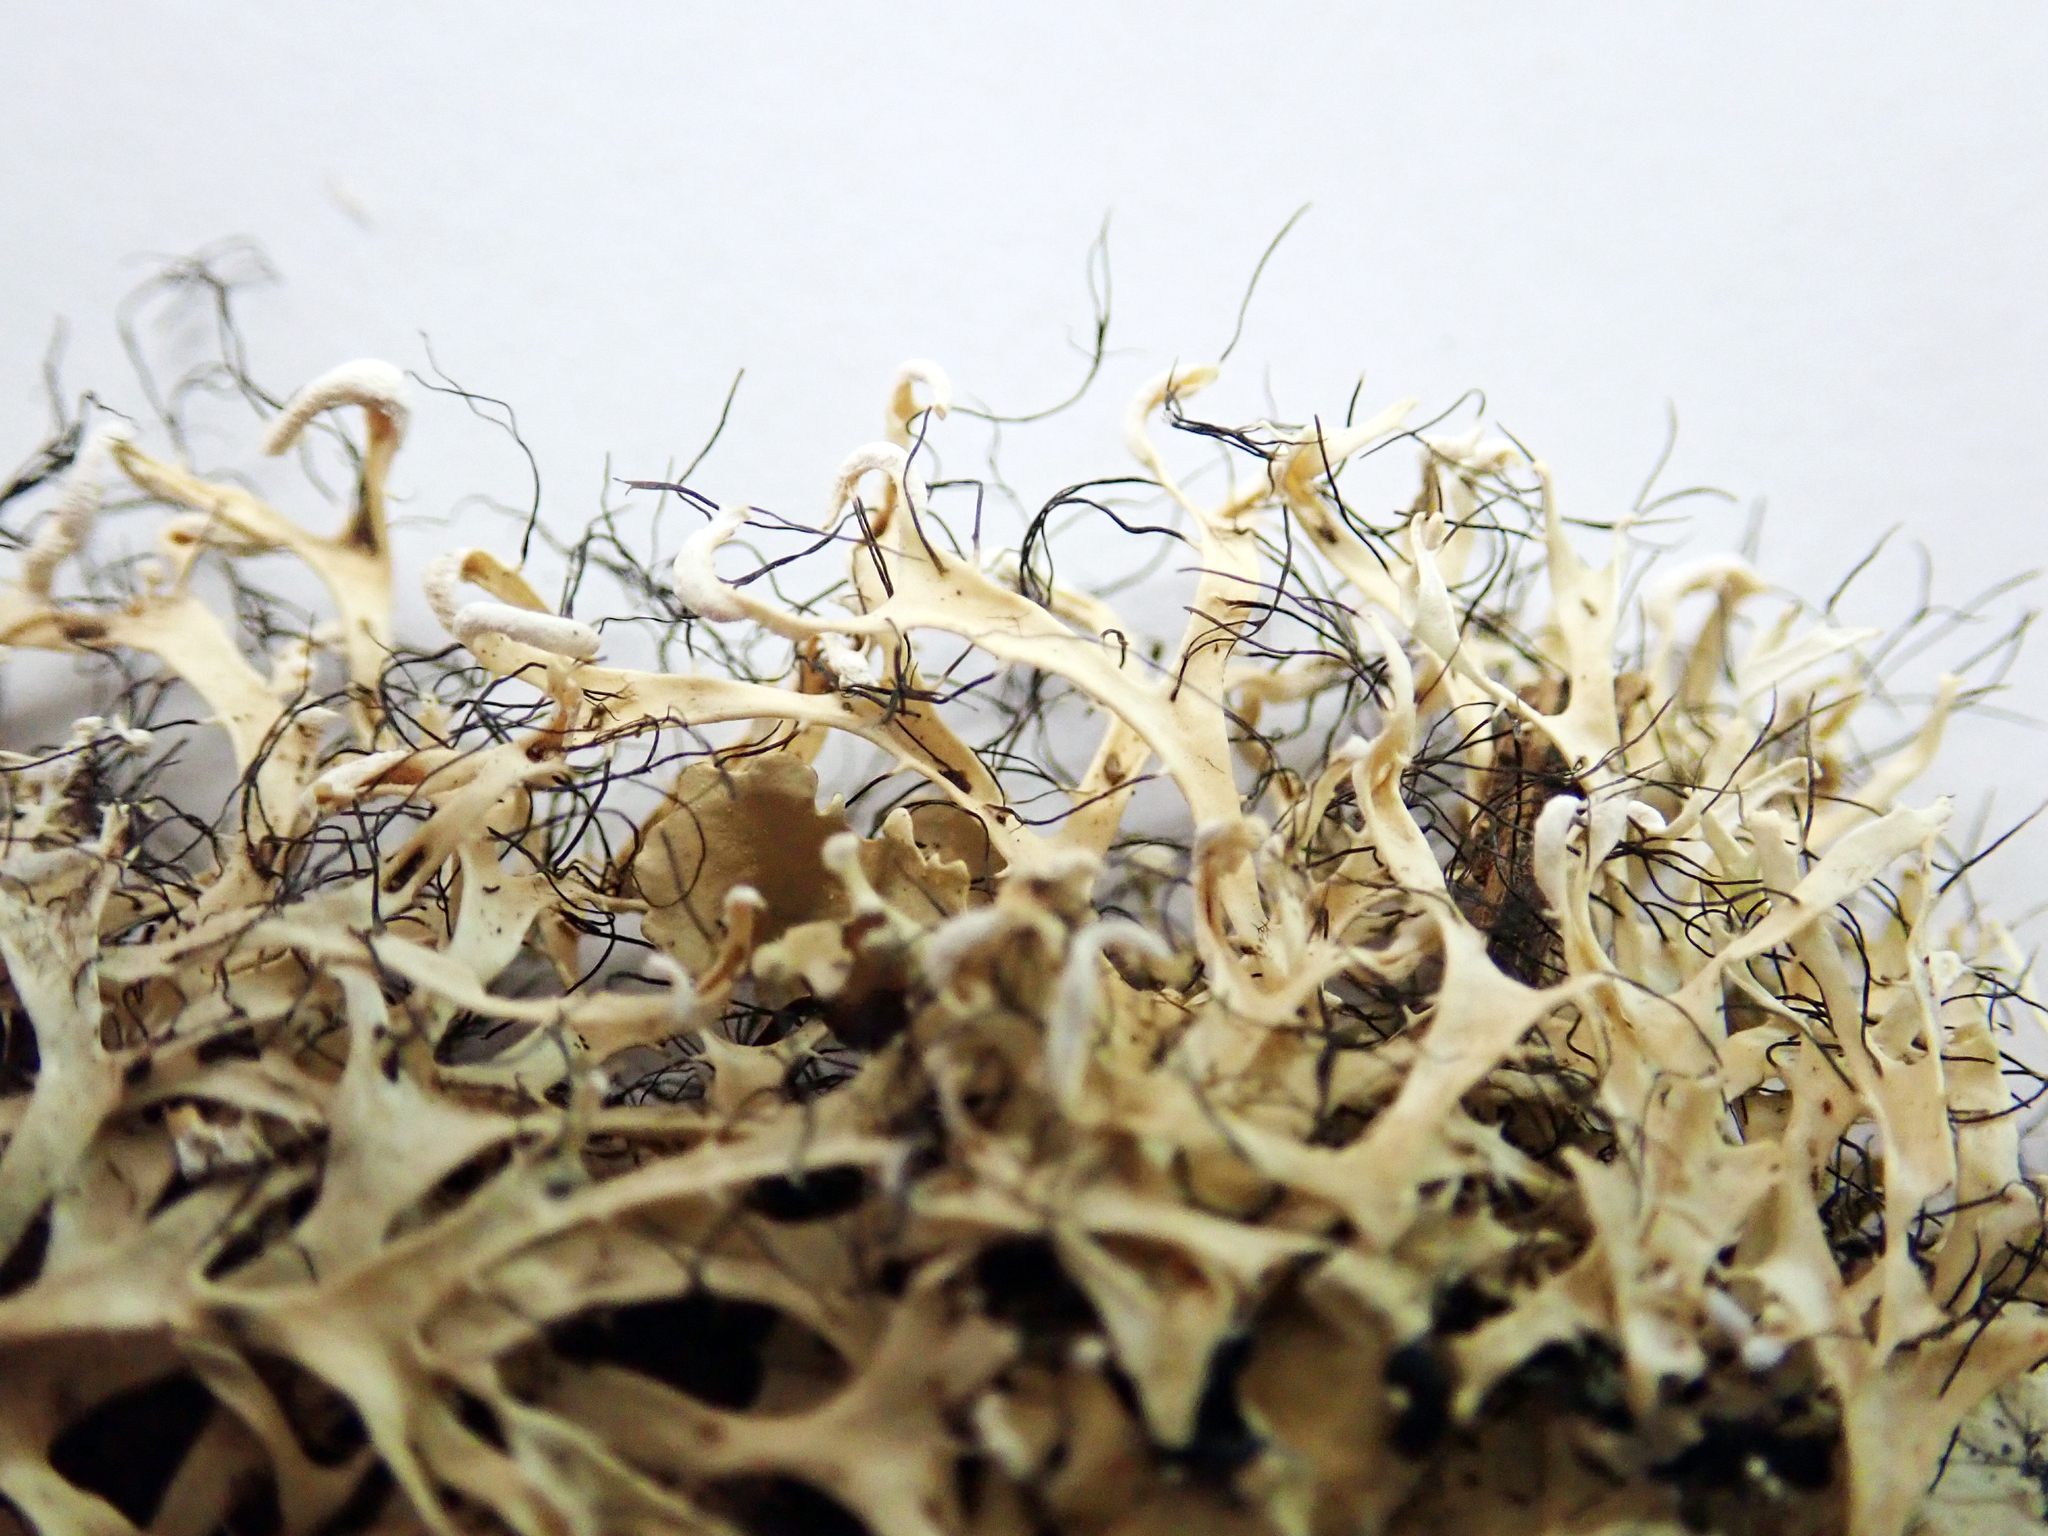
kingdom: Fungi
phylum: Ascomycota
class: Lecanoromycetes
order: Caliciales
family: Physciaceae
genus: Leucodermia
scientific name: Leucodermia leucomelos
